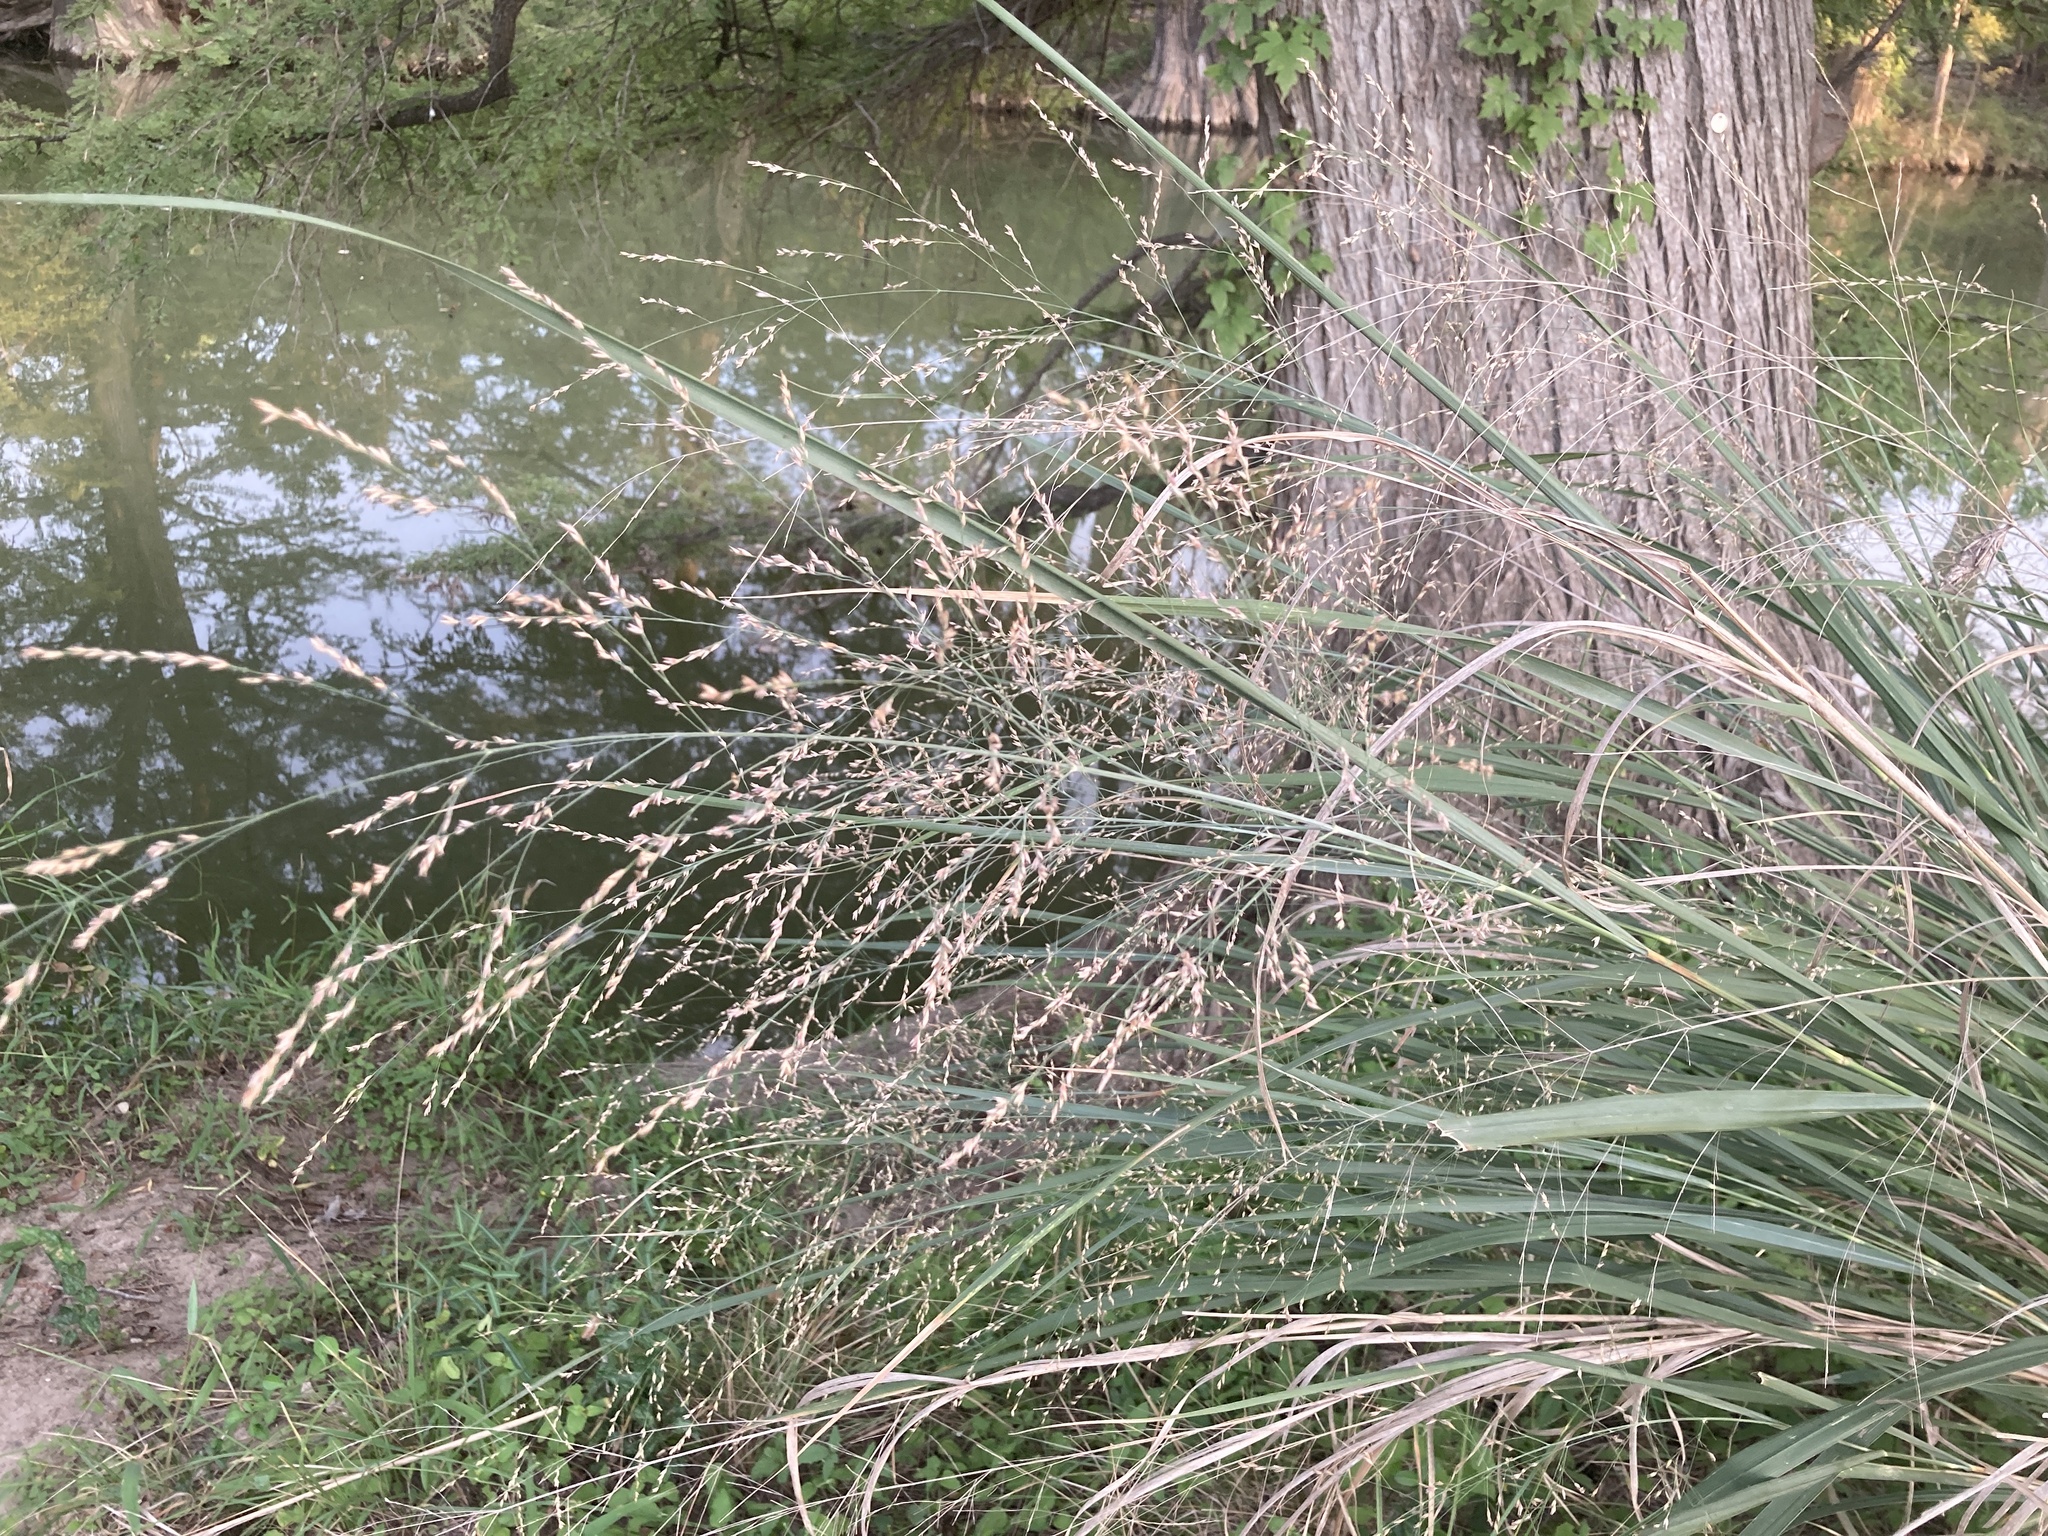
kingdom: Plantae
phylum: Tracheophyta
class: Liliopsida
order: Poales
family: Poaceae
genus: Panicum
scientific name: Panicum virgatum
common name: Switchgrass
